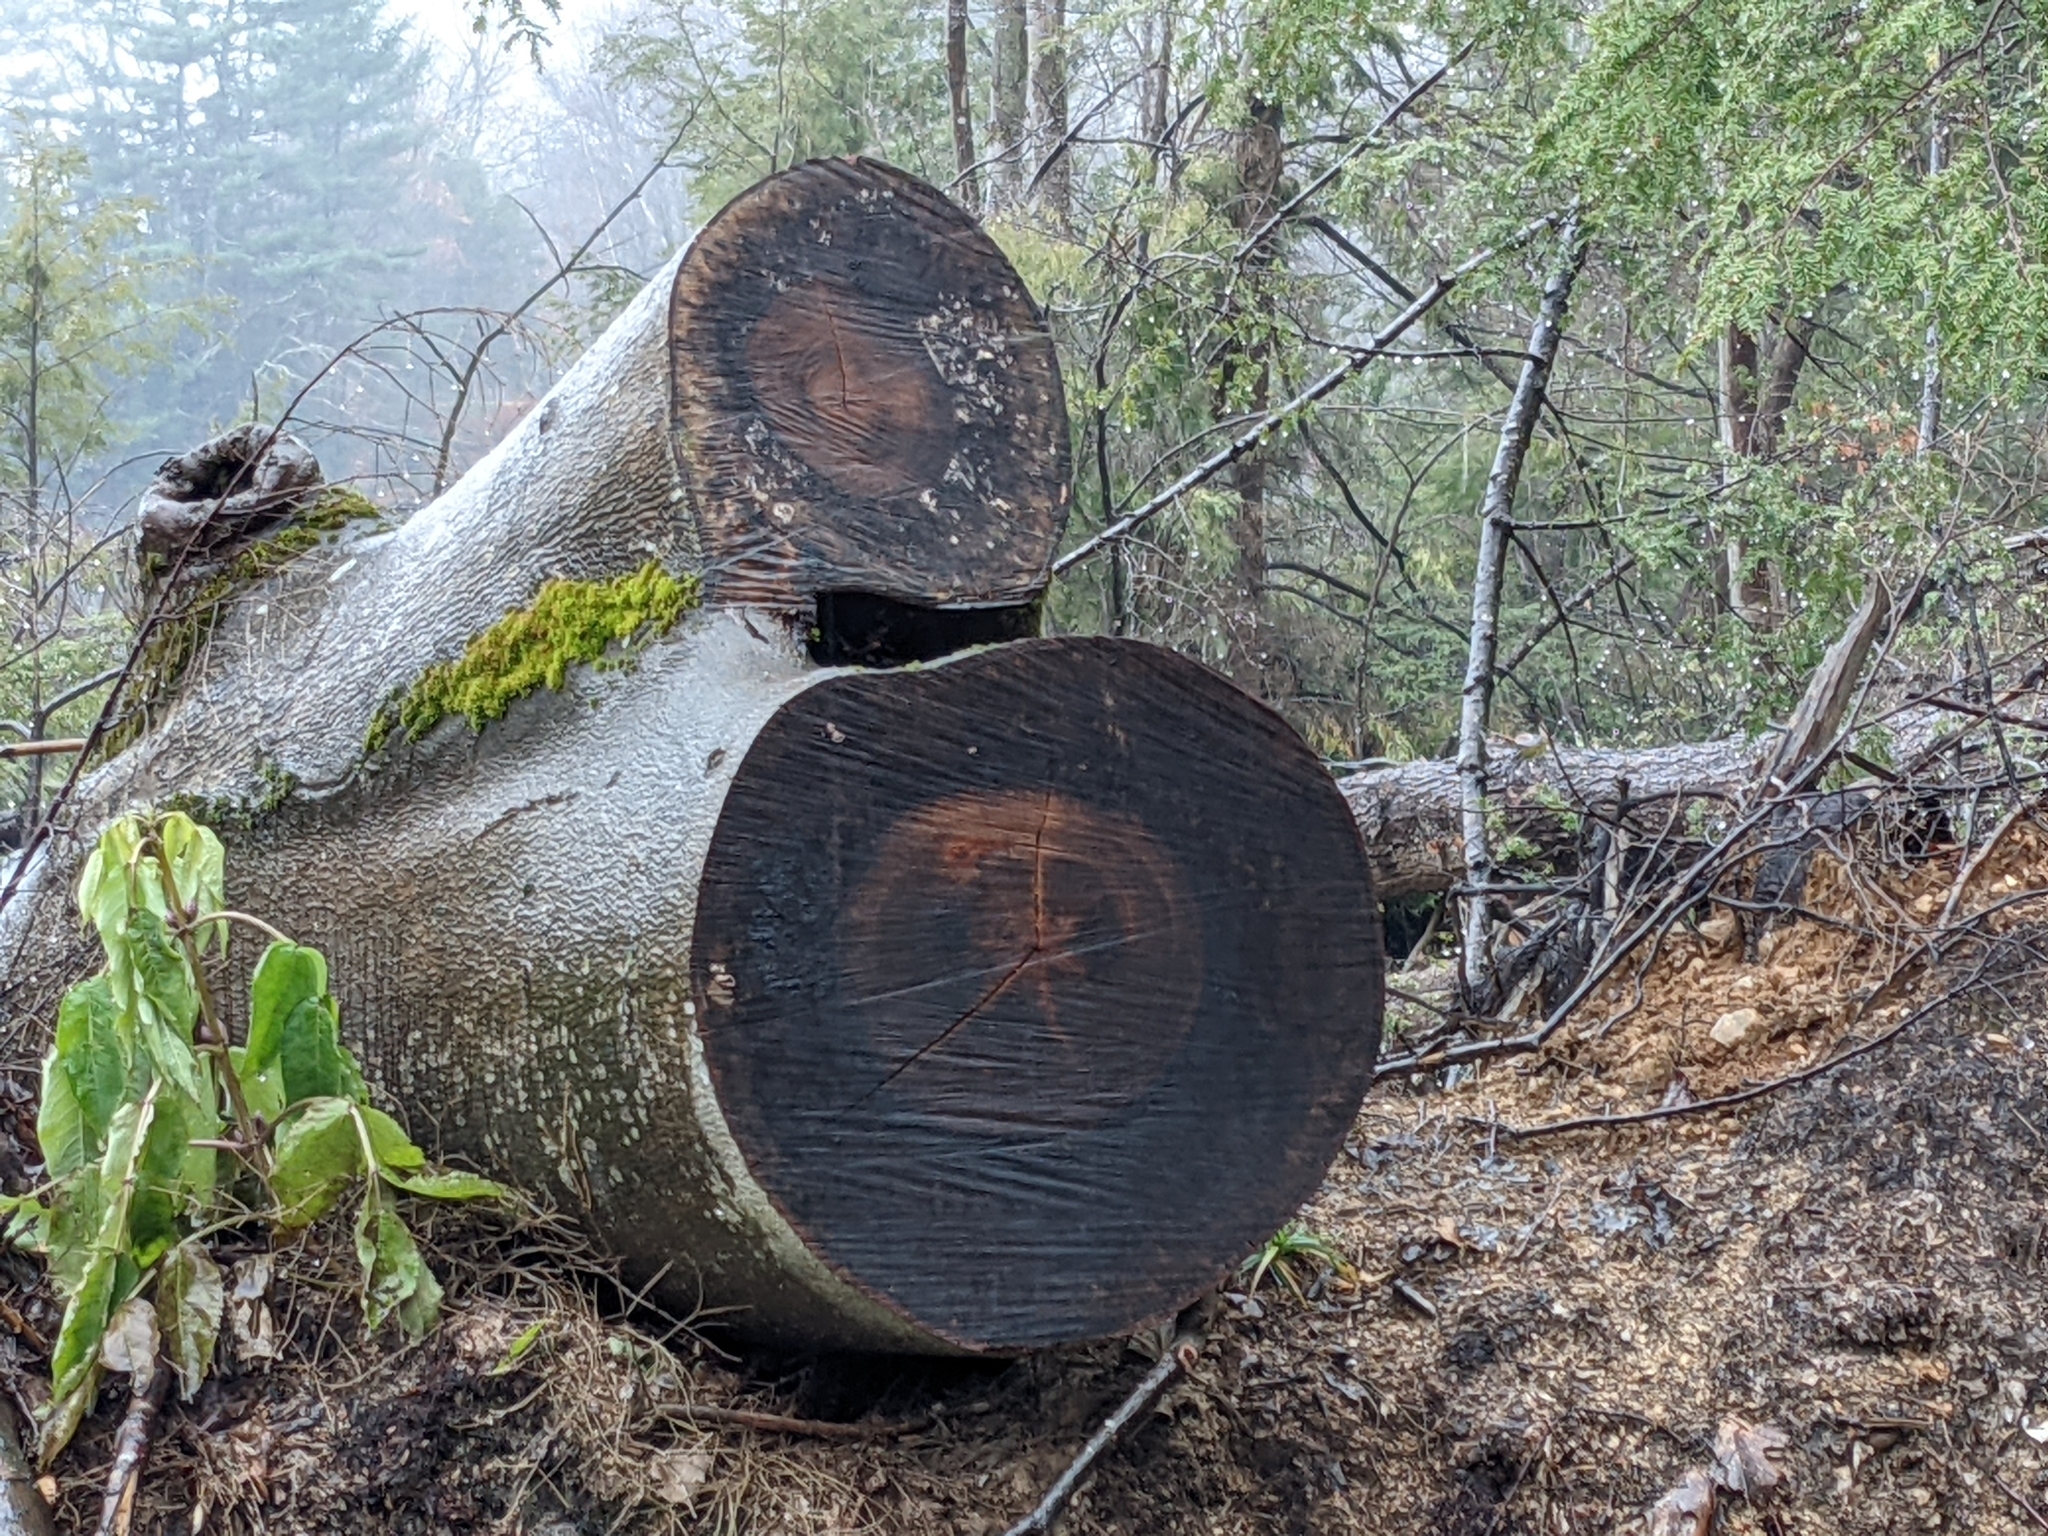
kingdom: Plantae
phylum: Tracheophyta
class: Magnoliopsida
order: Fagales
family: Fagaceae
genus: Fagus
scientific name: Fagus grandifolia
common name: American beech
